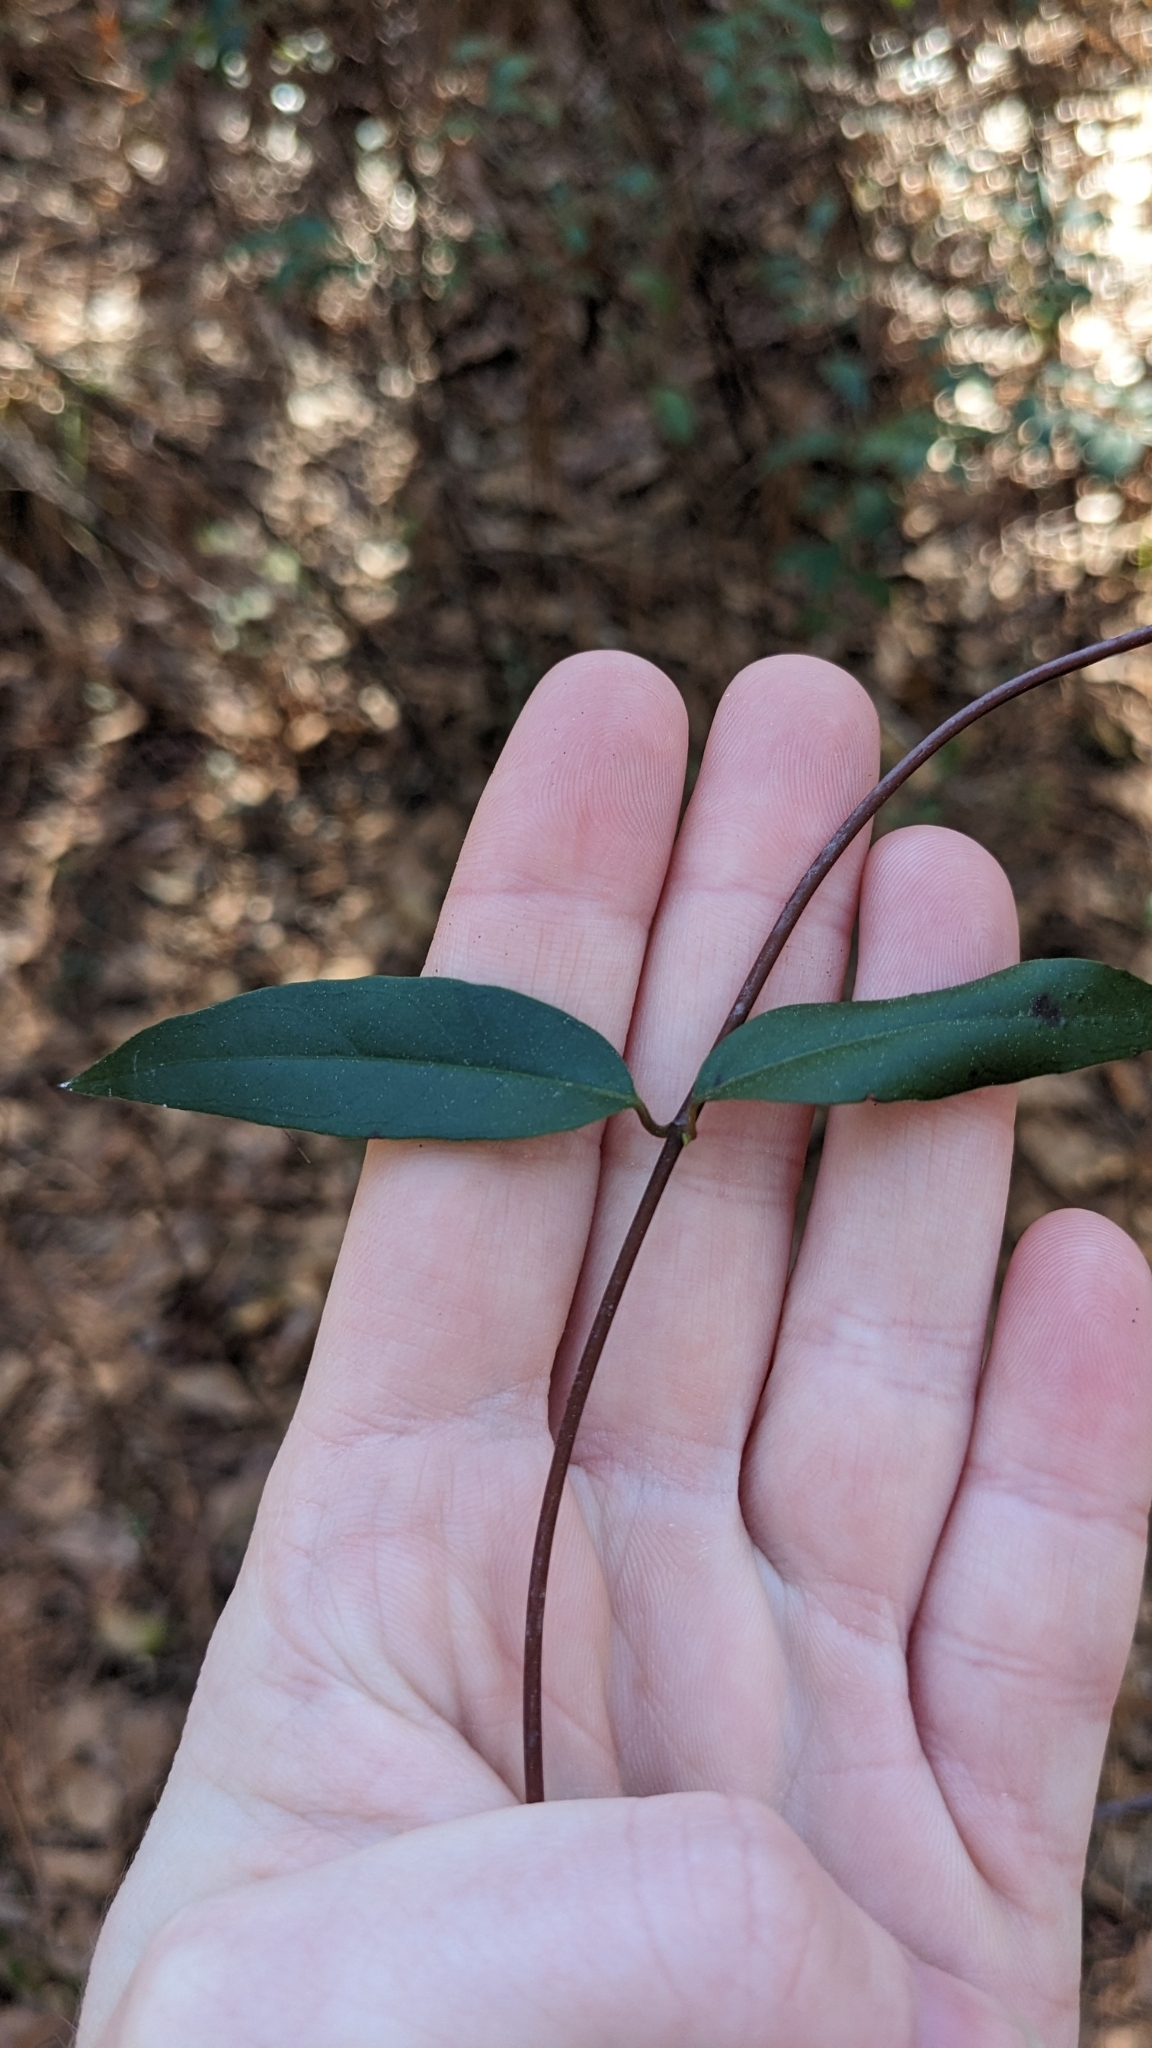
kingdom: Plantae
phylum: Tracheophyta
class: Magnoliopsida
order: Gentianales
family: Gelsemiaceae
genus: Gelsemium
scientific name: Gelsemium sempervirens
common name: Carolina-jasmine
